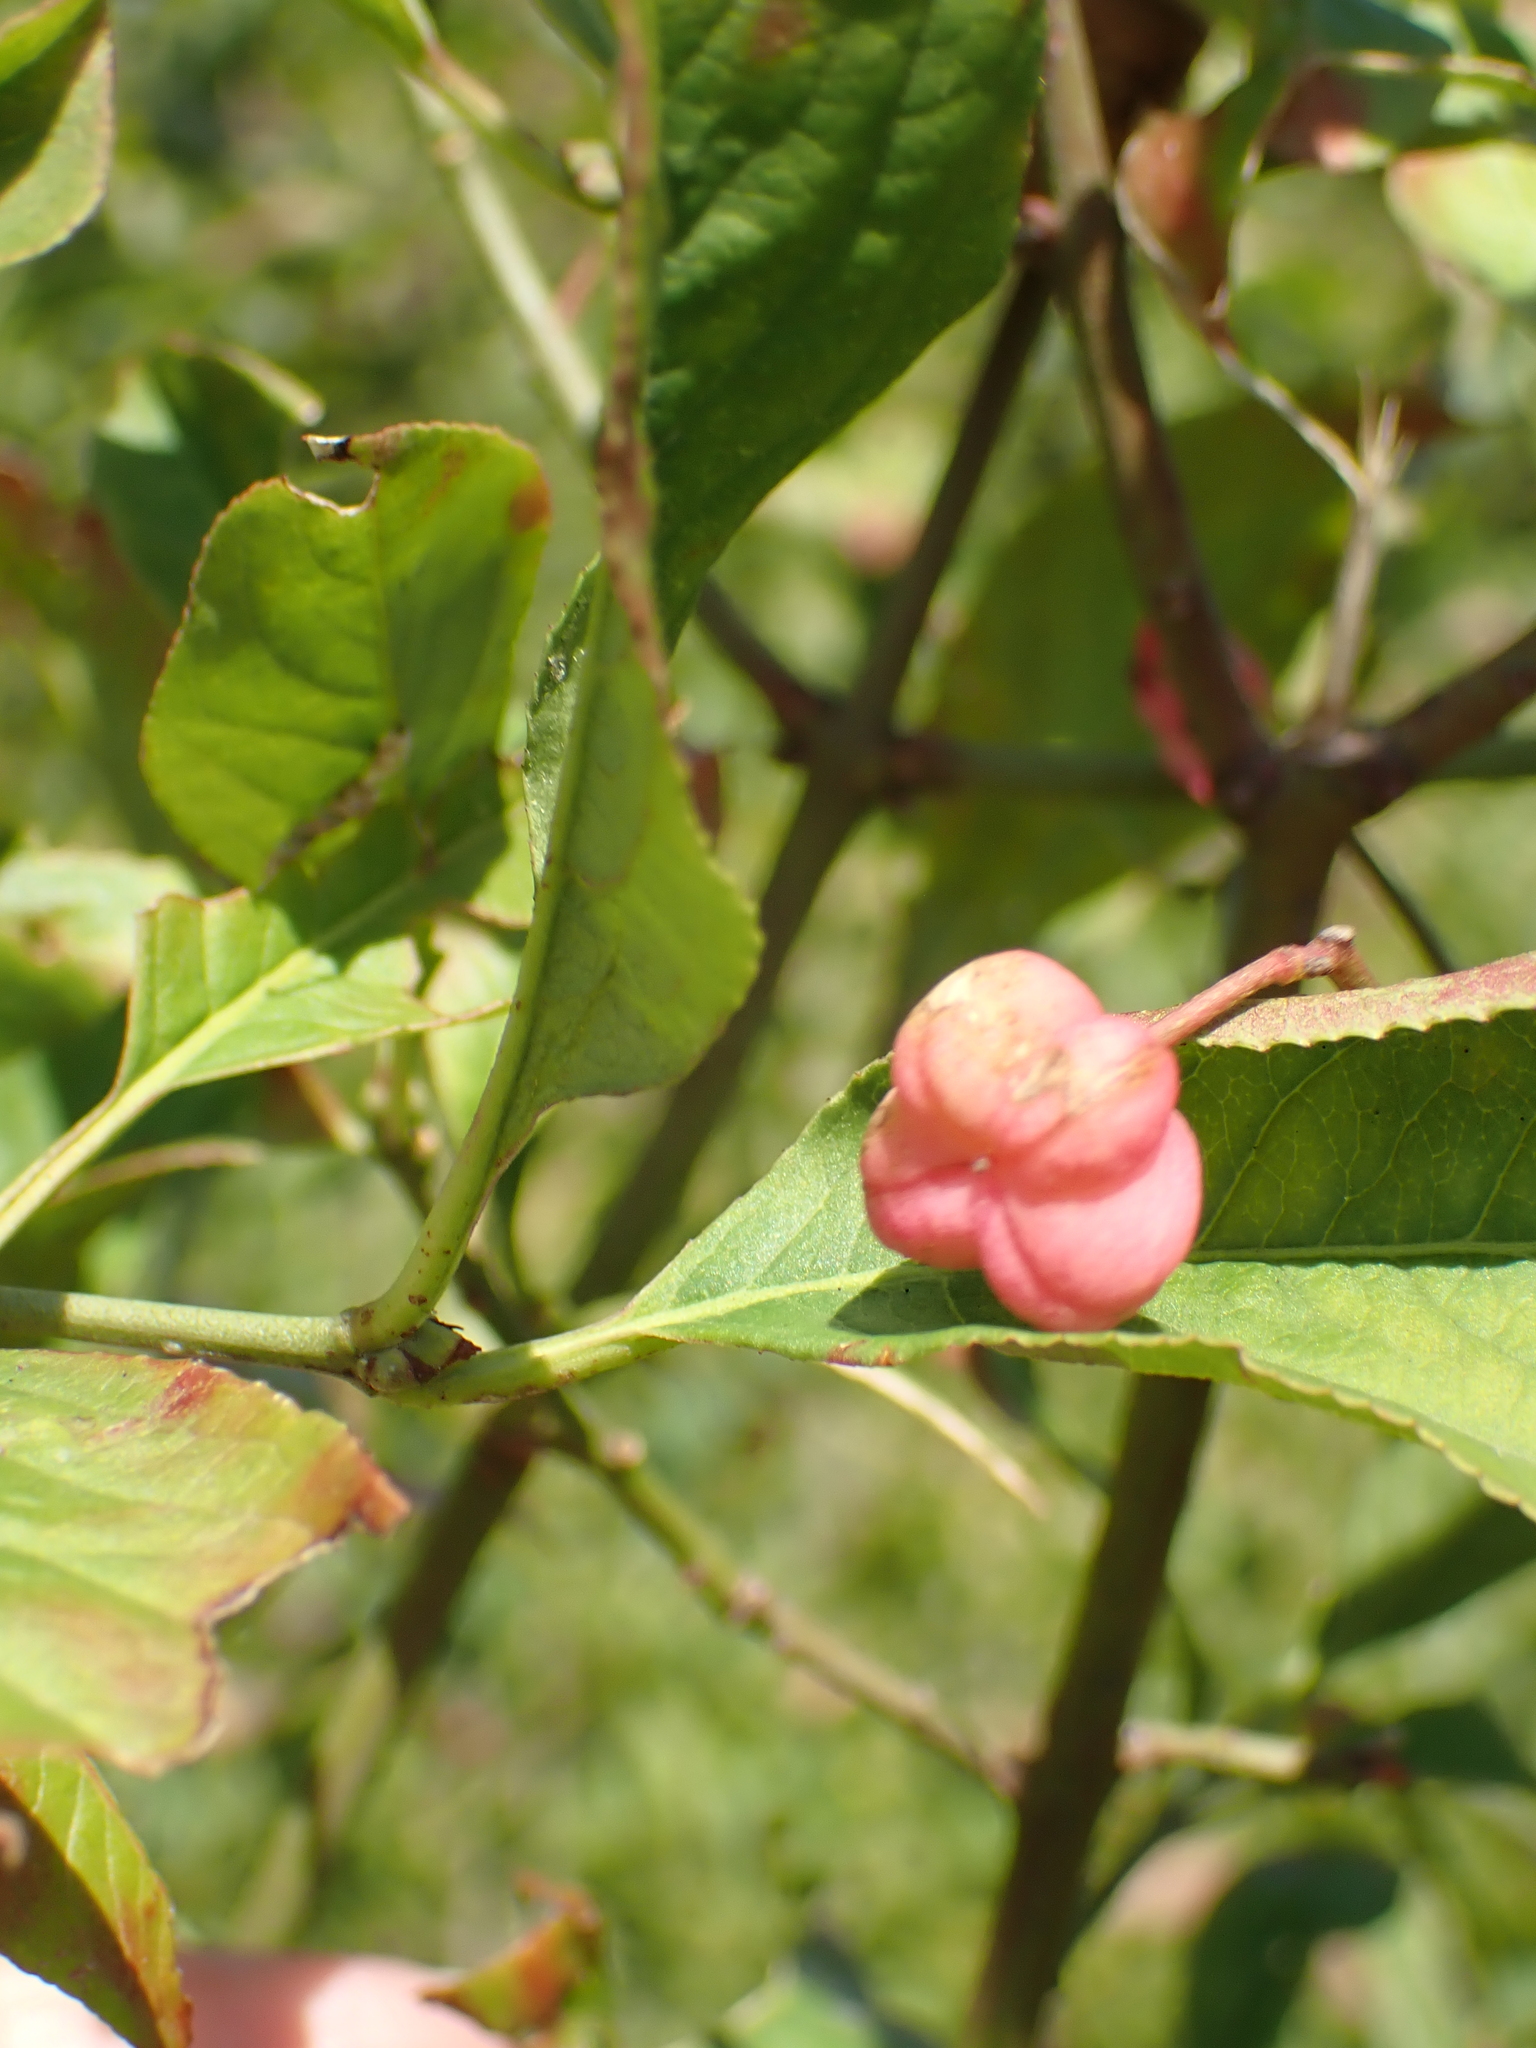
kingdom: Plantae
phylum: Tracheophyta
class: Magnoliopsida
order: Celastrales
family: Celastraceae
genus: Euonymus
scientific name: Euonymus europaeus
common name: Spindle
